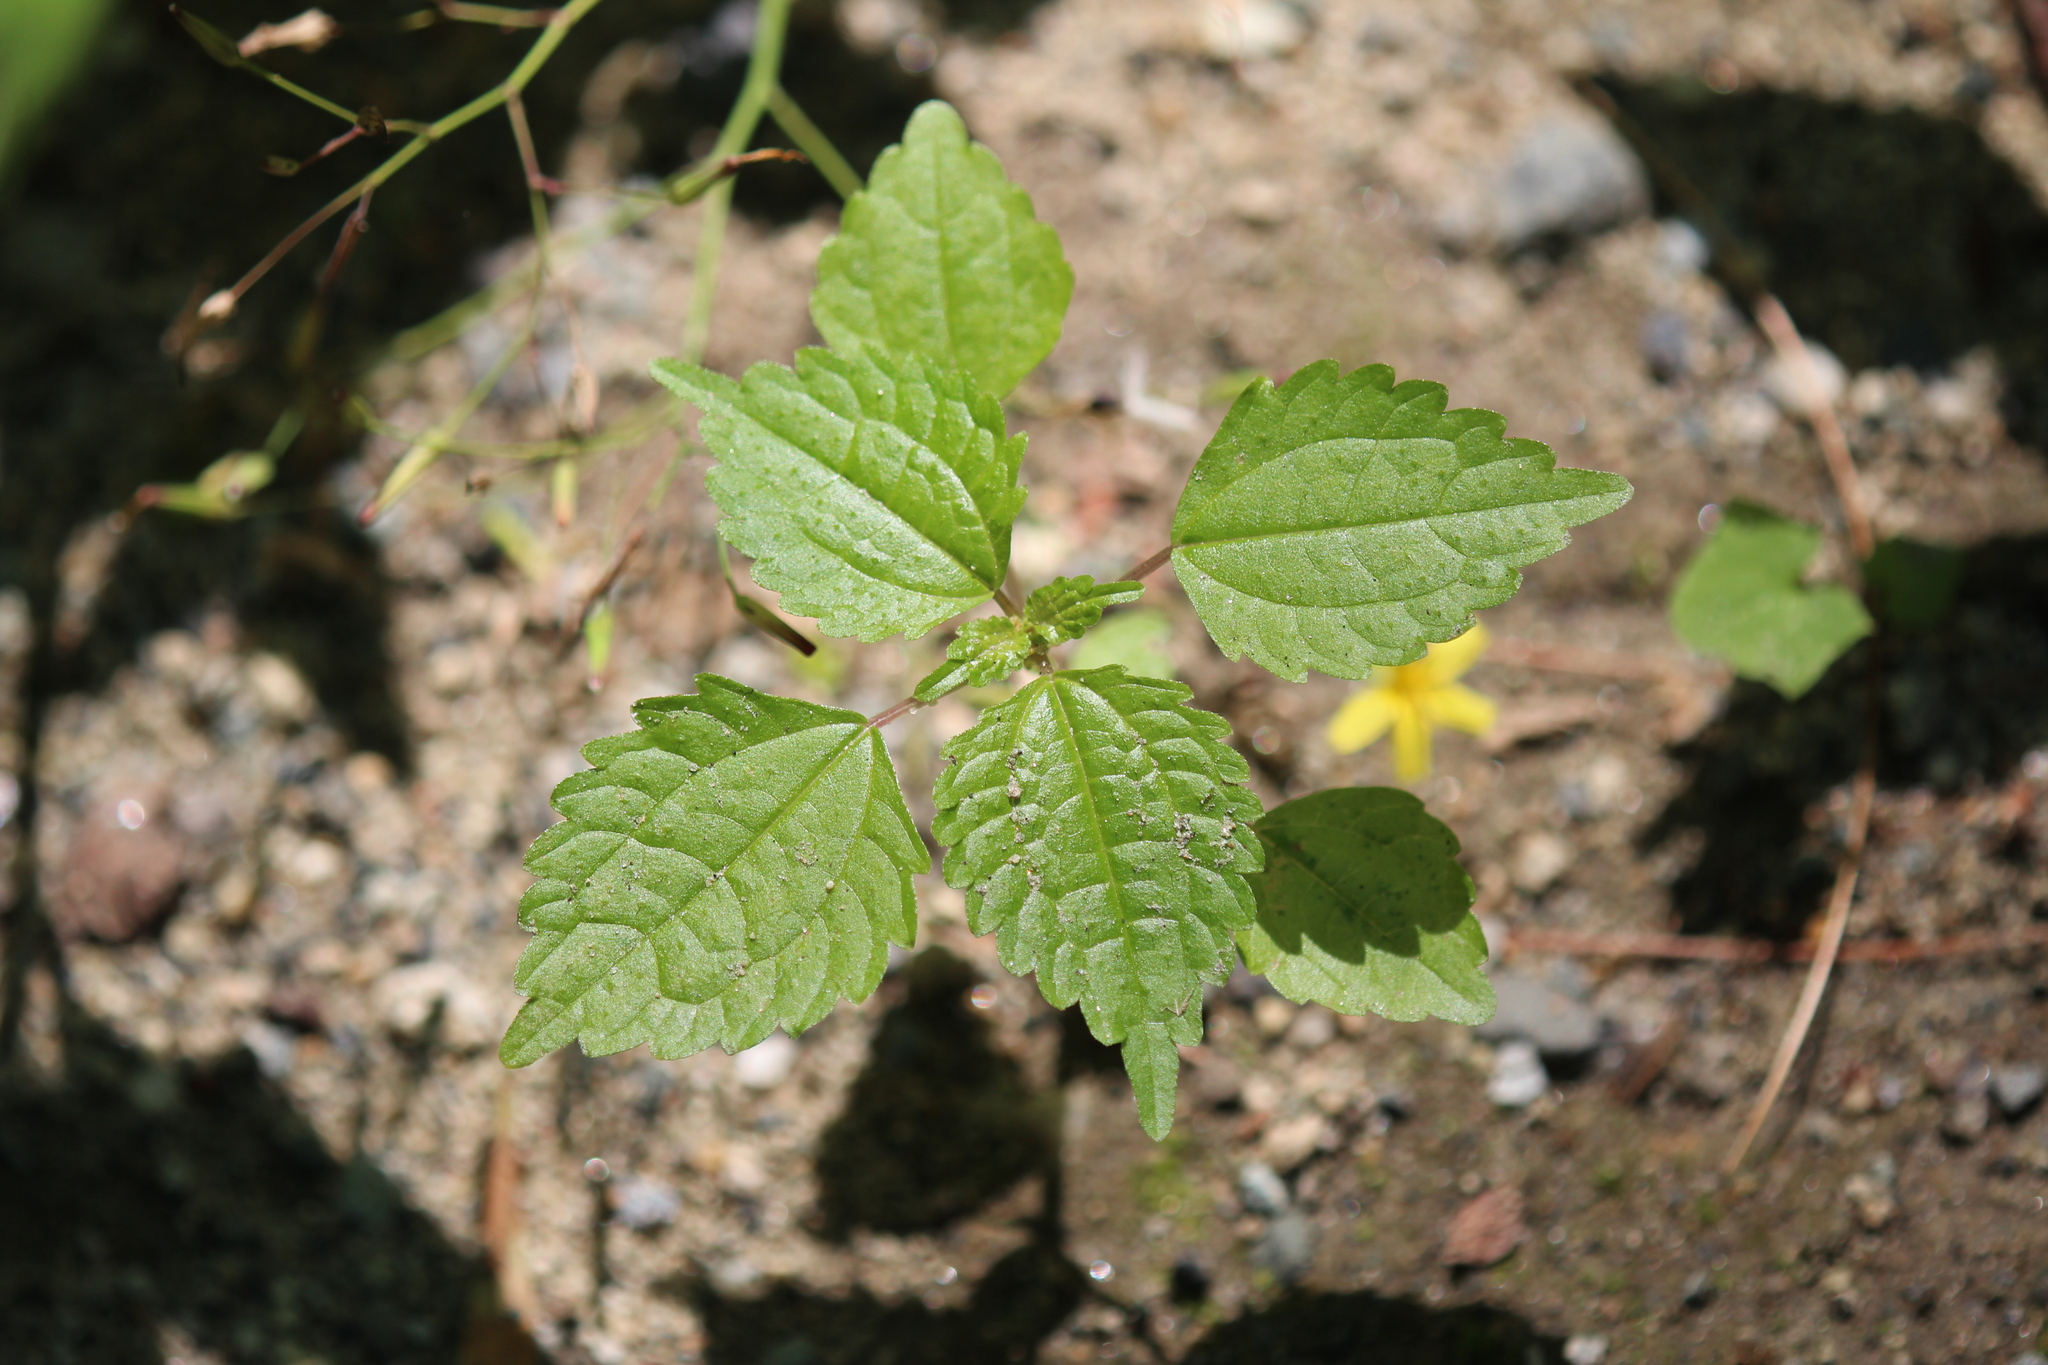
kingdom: Plantae
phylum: Tracheophyta
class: Magnoliopsida
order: Rosales
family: Urticaceae
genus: Pilea
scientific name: Pilea pumila
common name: Clearweed
